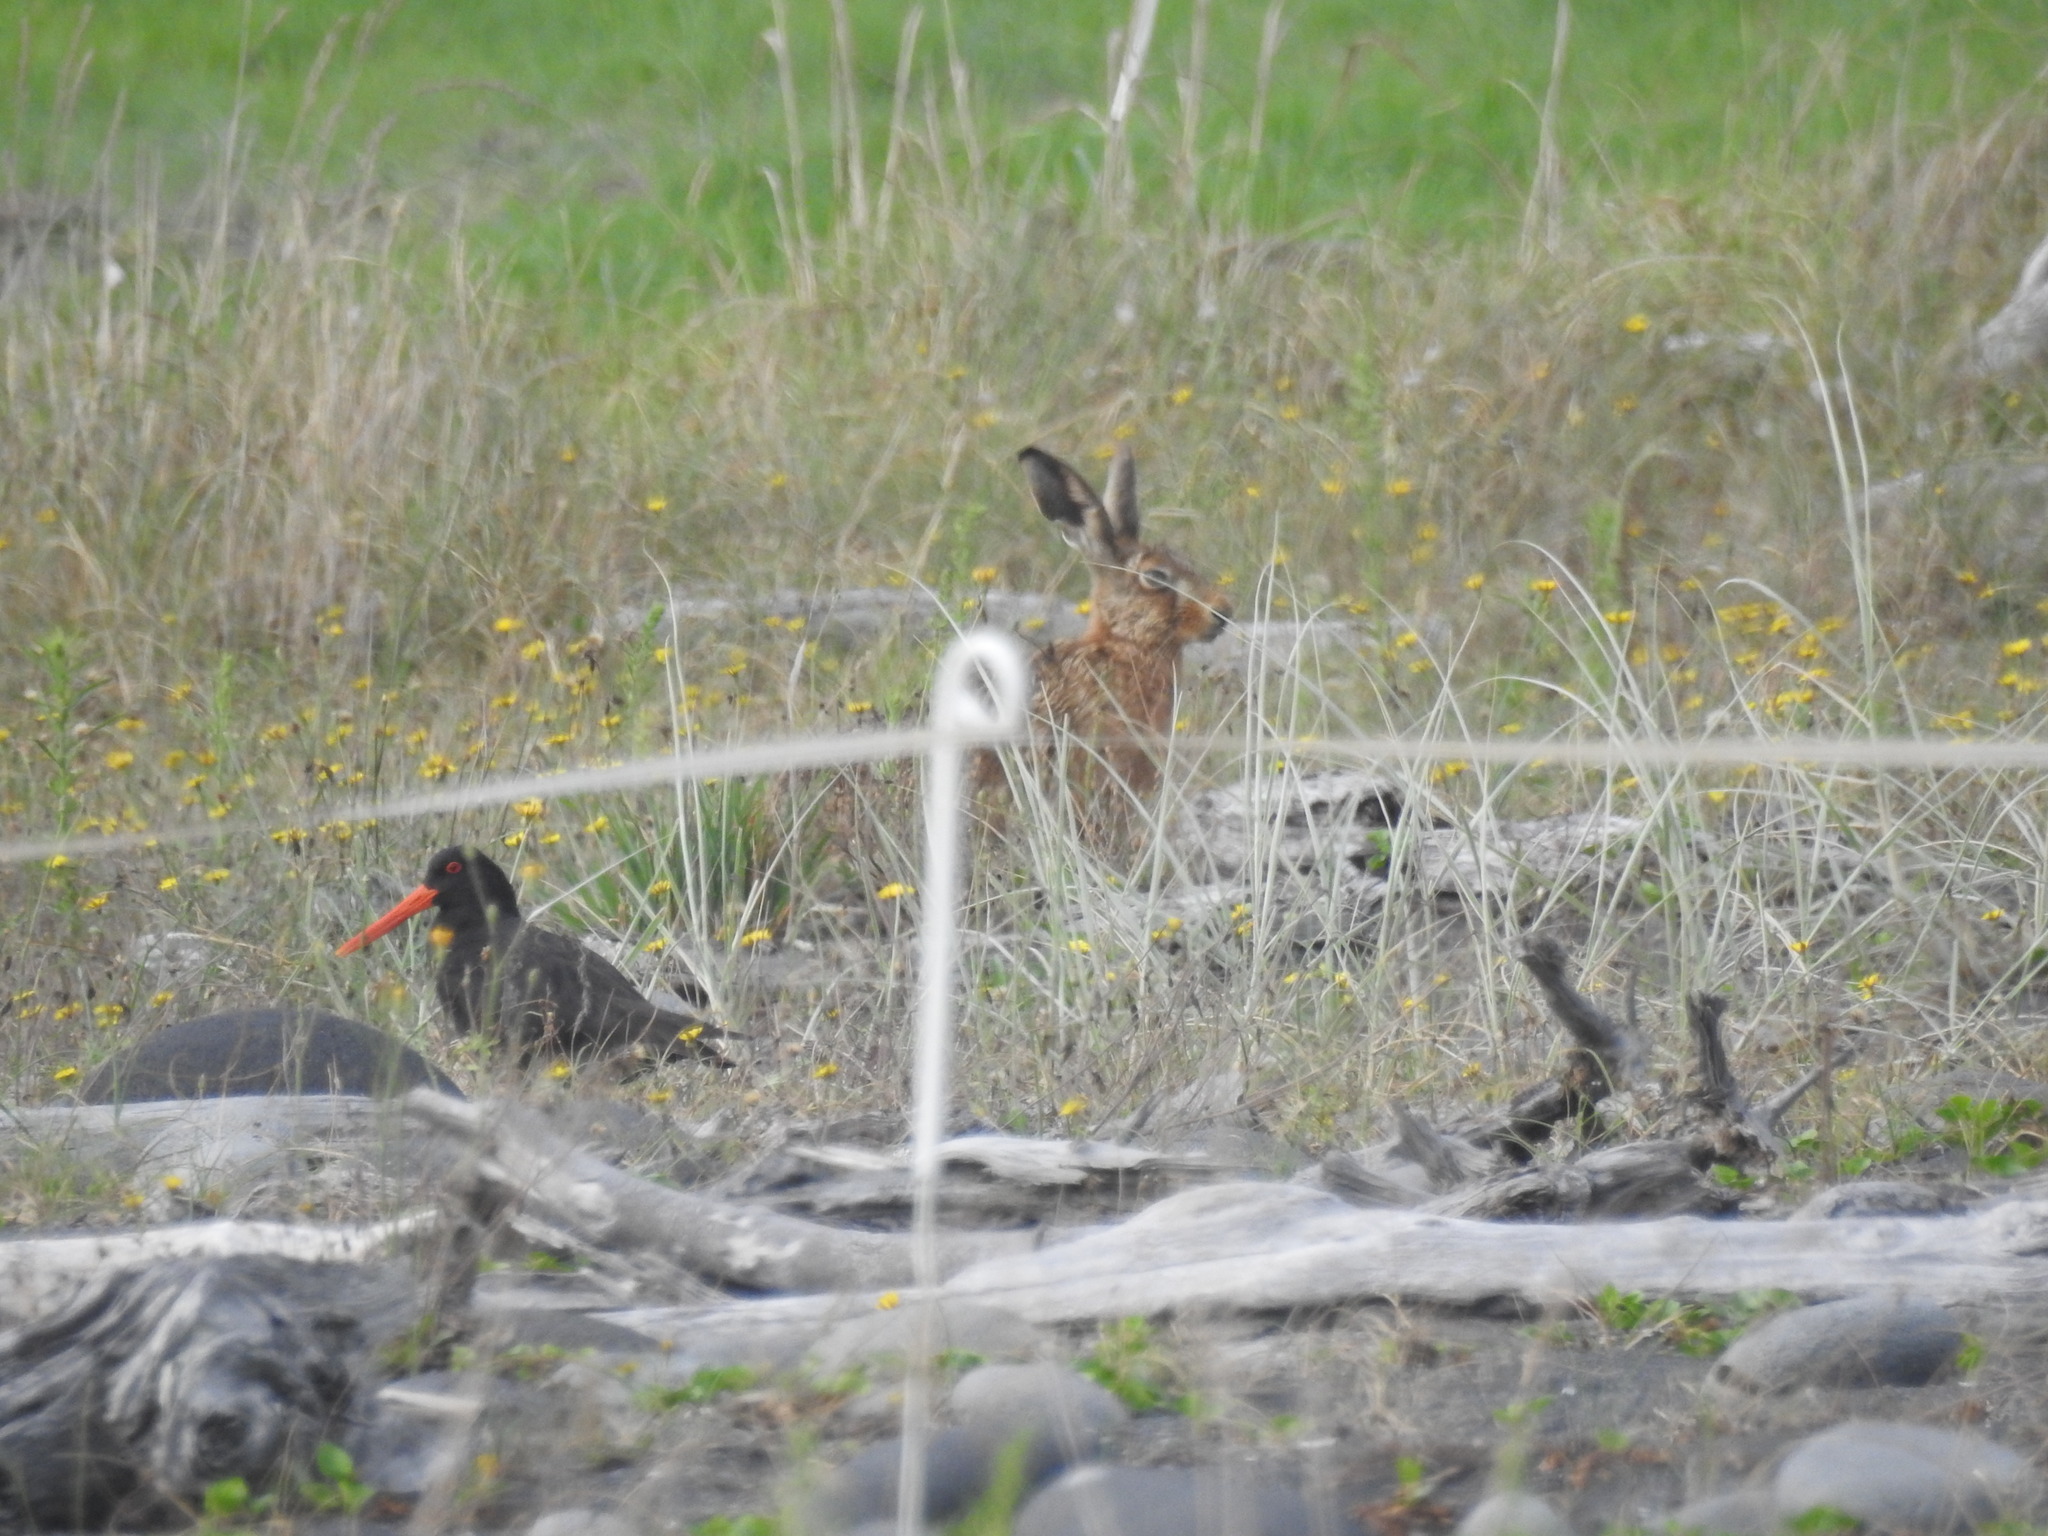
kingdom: Animalia
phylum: Chordata
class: Aves
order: Charadriiformes
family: Haematopodidae
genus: Haematopus
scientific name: Haematopus unicolor
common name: Variable oystercatcher
